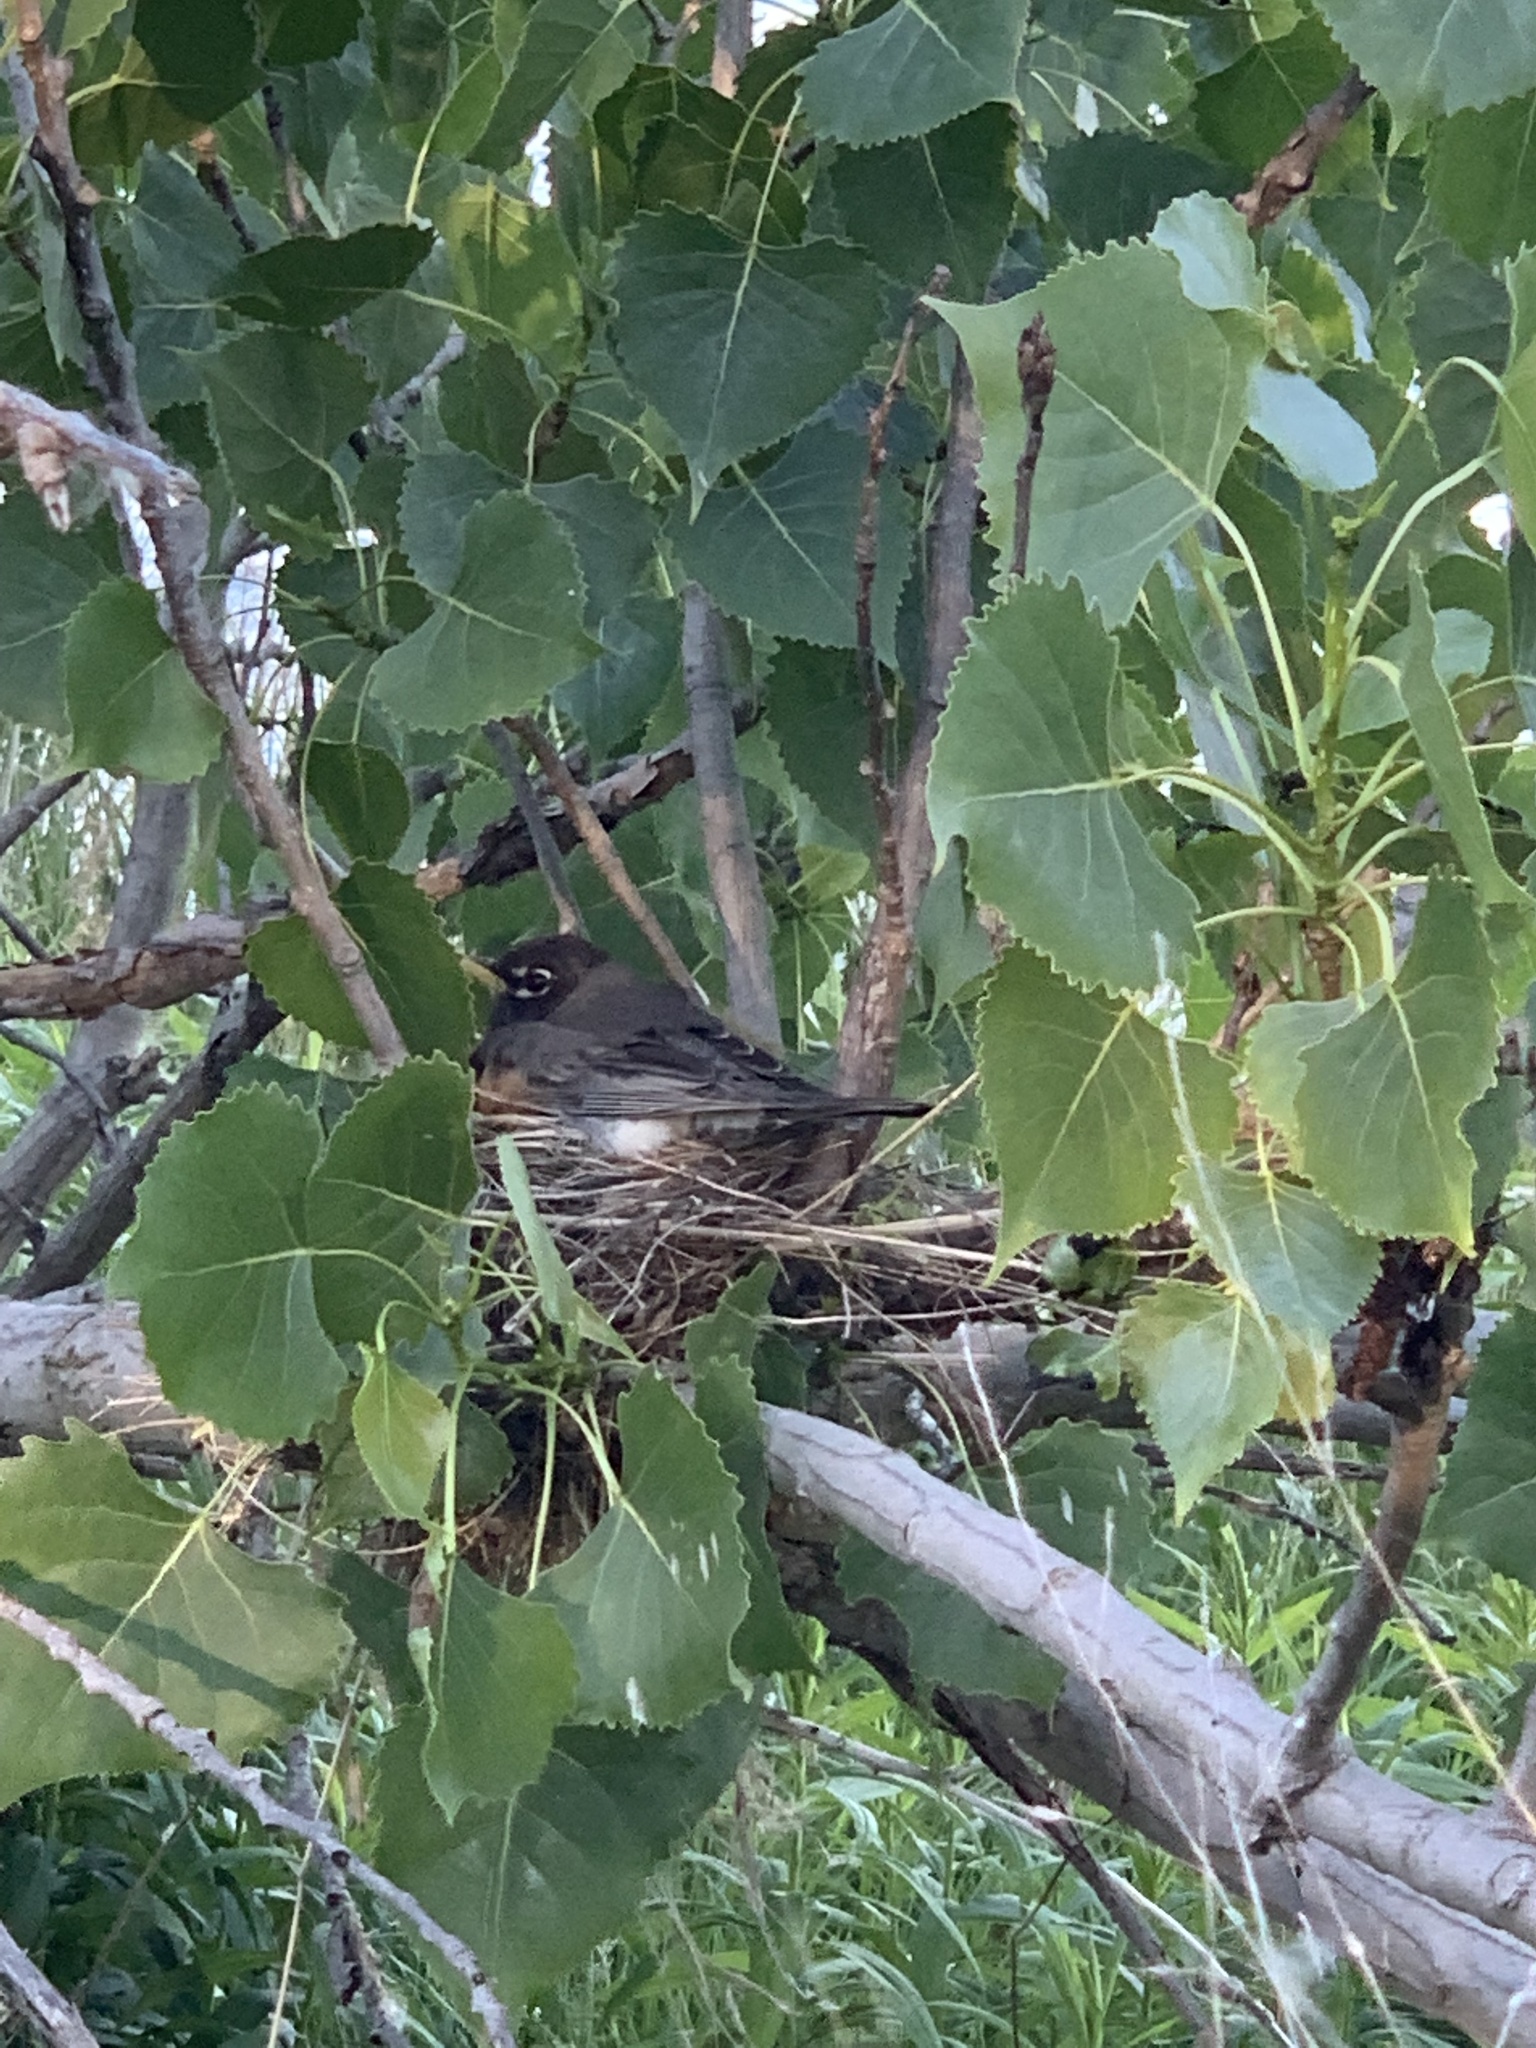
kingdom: Animalia
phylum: Chordata
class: Aves
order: Passeriformes
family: Turdidae
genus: Turdus
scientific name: Turdus migratorius
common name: American robin
